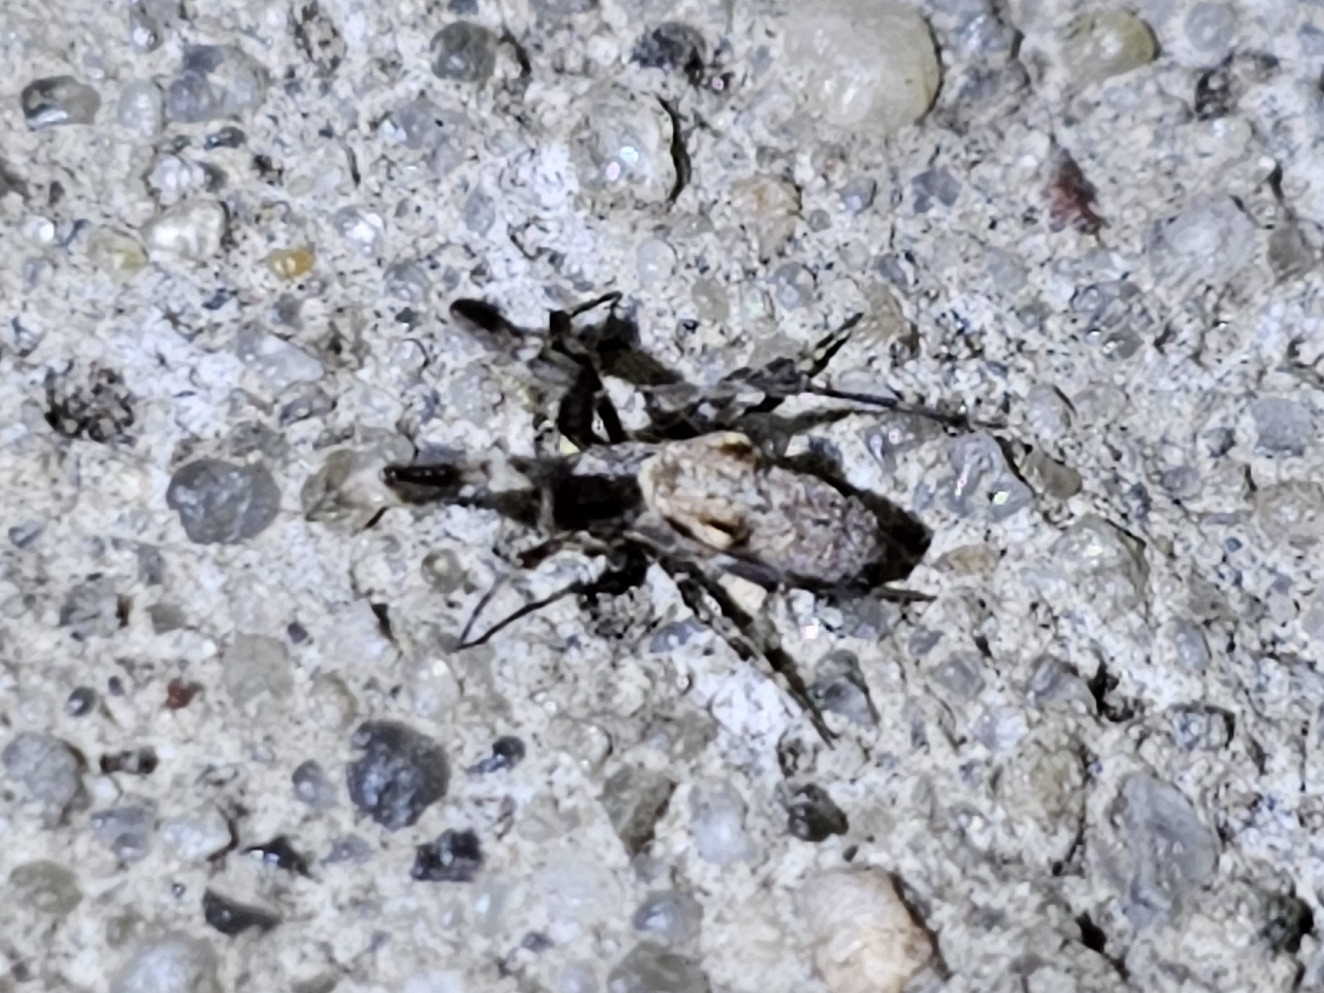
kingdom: Animalia
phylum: Arthropoda
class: Arachnida
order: Araneae
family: Uloboridae
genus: Uloborus
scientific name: Uloborus plumipes
